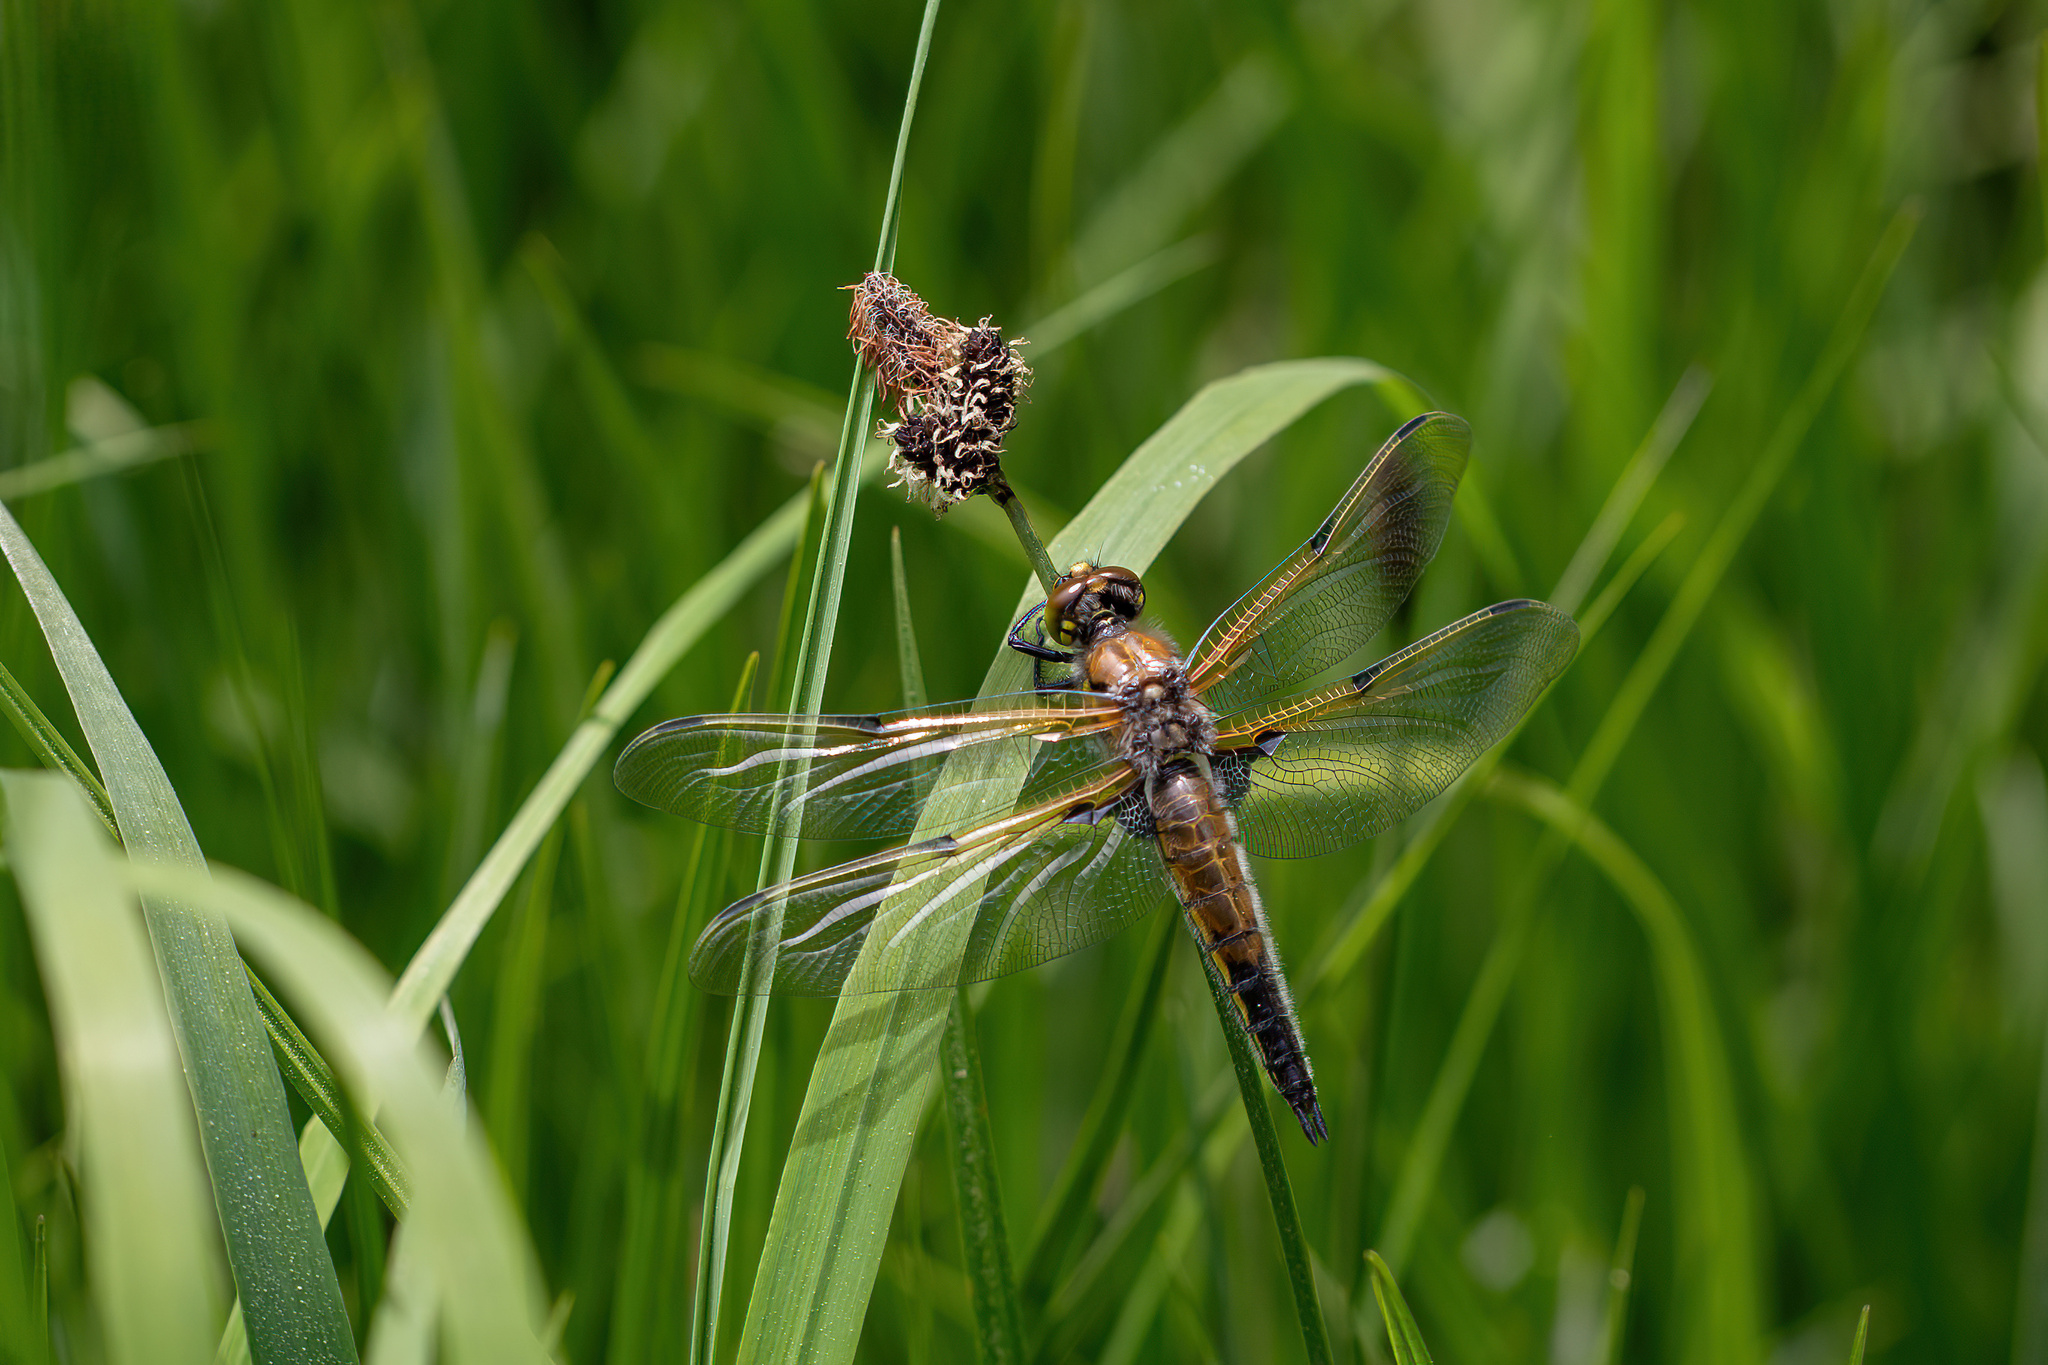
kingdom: Animalia
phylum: Arthropoda
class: Insecta
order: Odonata
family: Libellulidae
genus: Libellula
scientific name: Libellula quadrimaculata
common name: Four-spotted chaser
